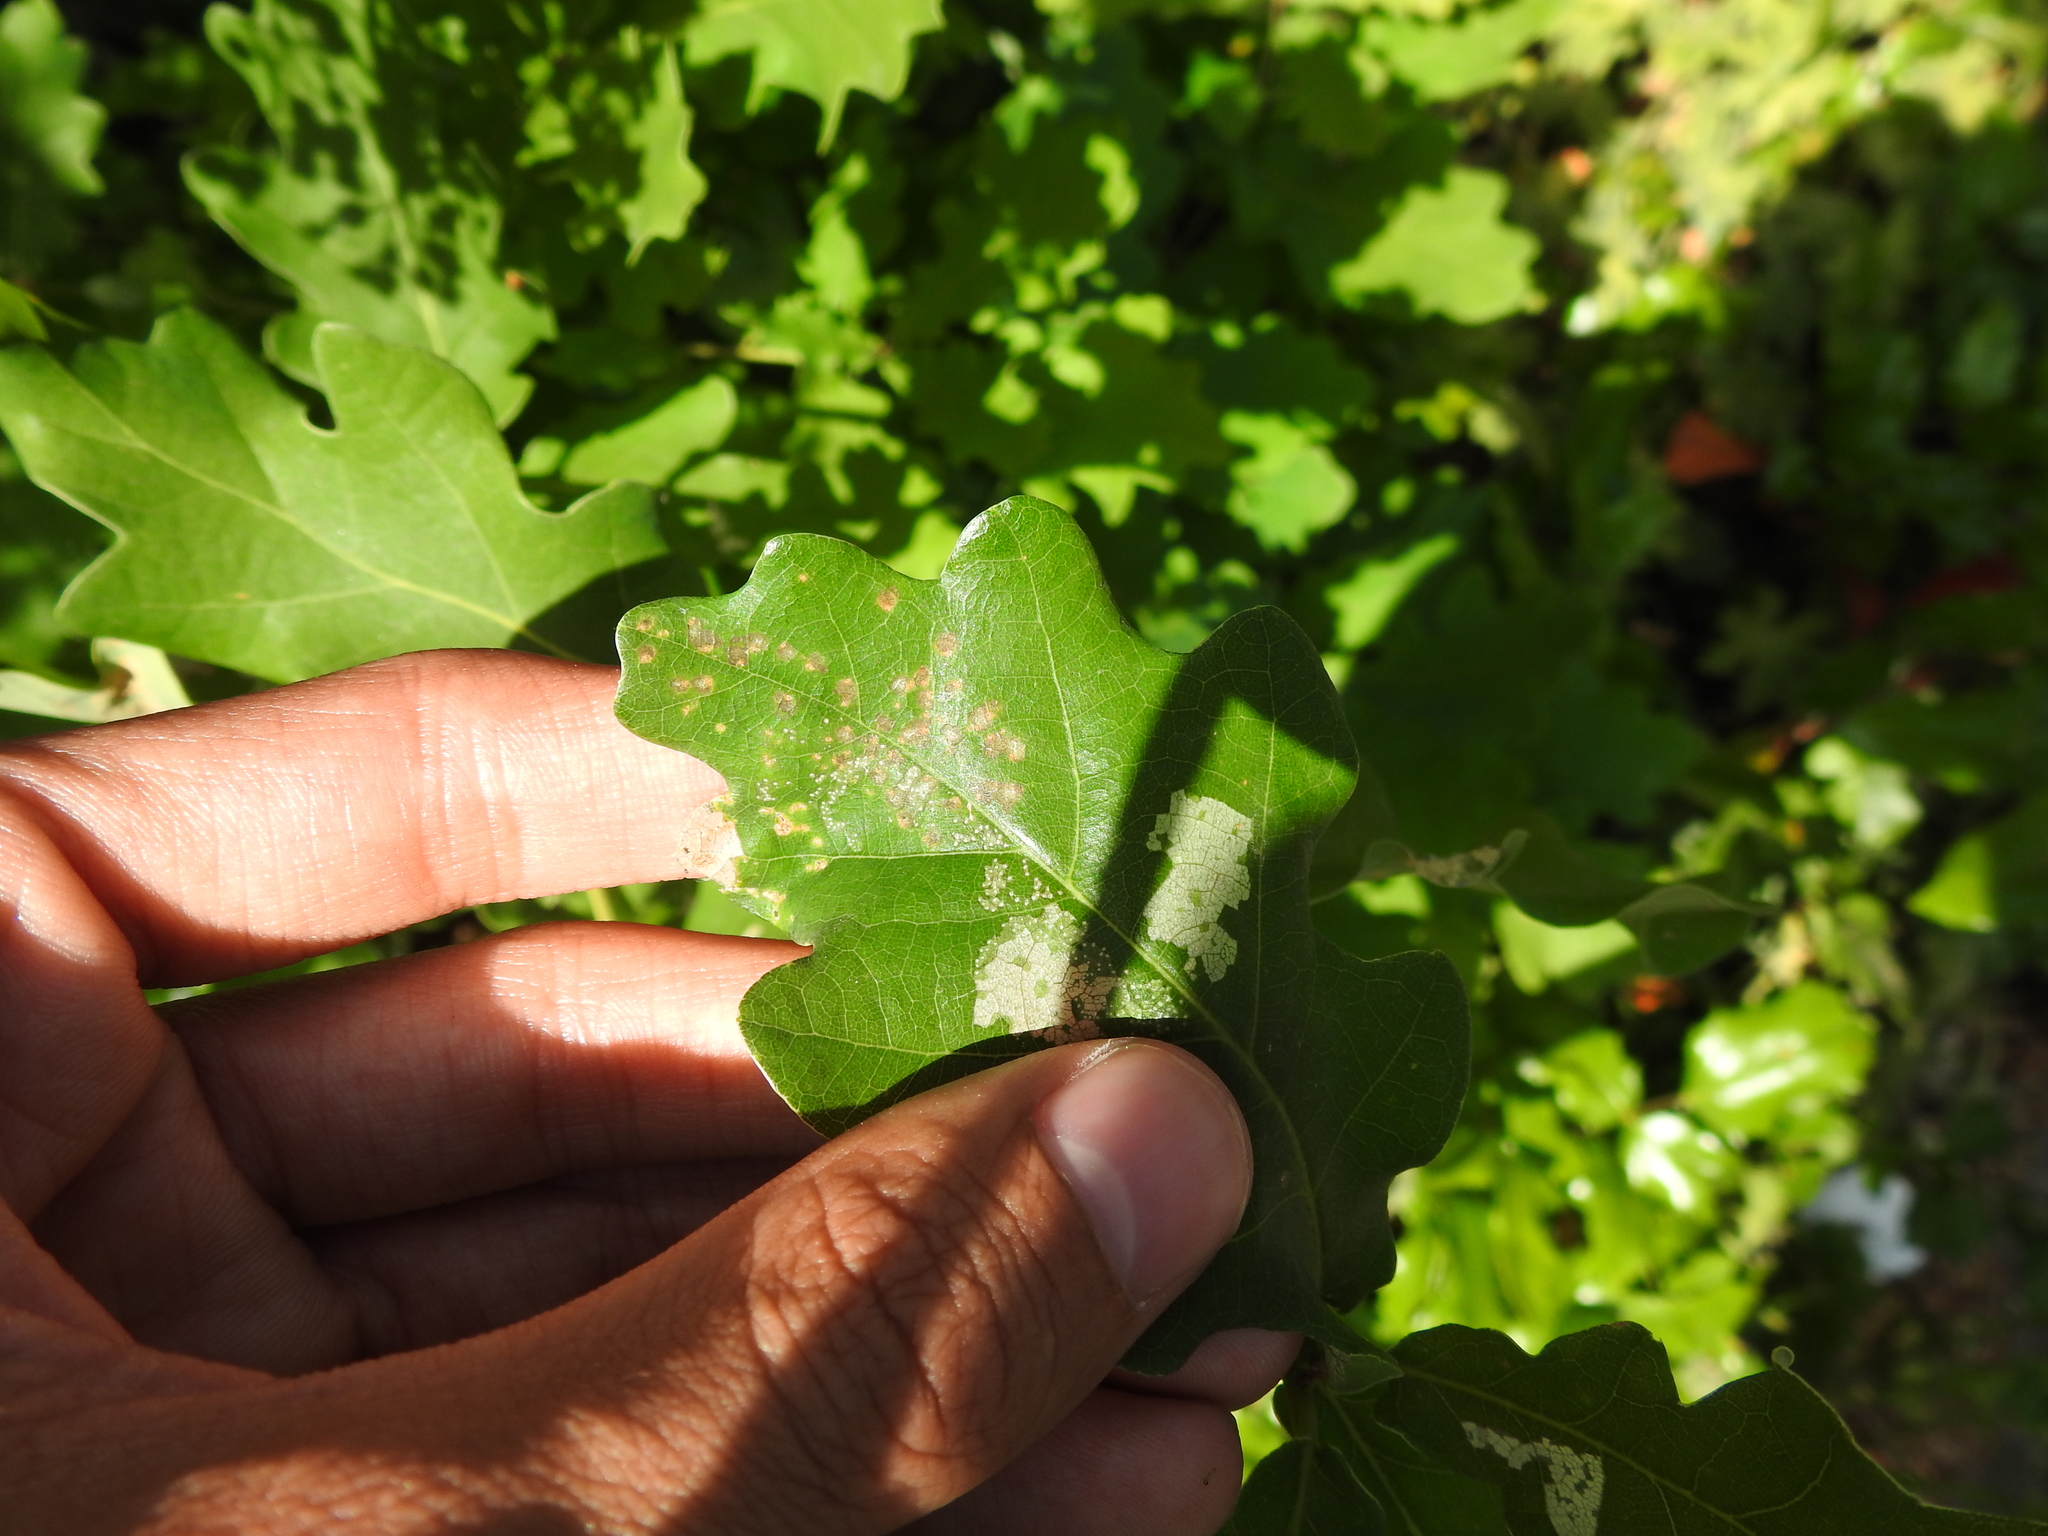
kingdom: Plantae
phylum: Tracheophyta
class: Magnoliopsida
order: Fagales
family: Fagaceae
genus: Quercus
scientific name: Quercus robur
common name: Pedunculate oak
